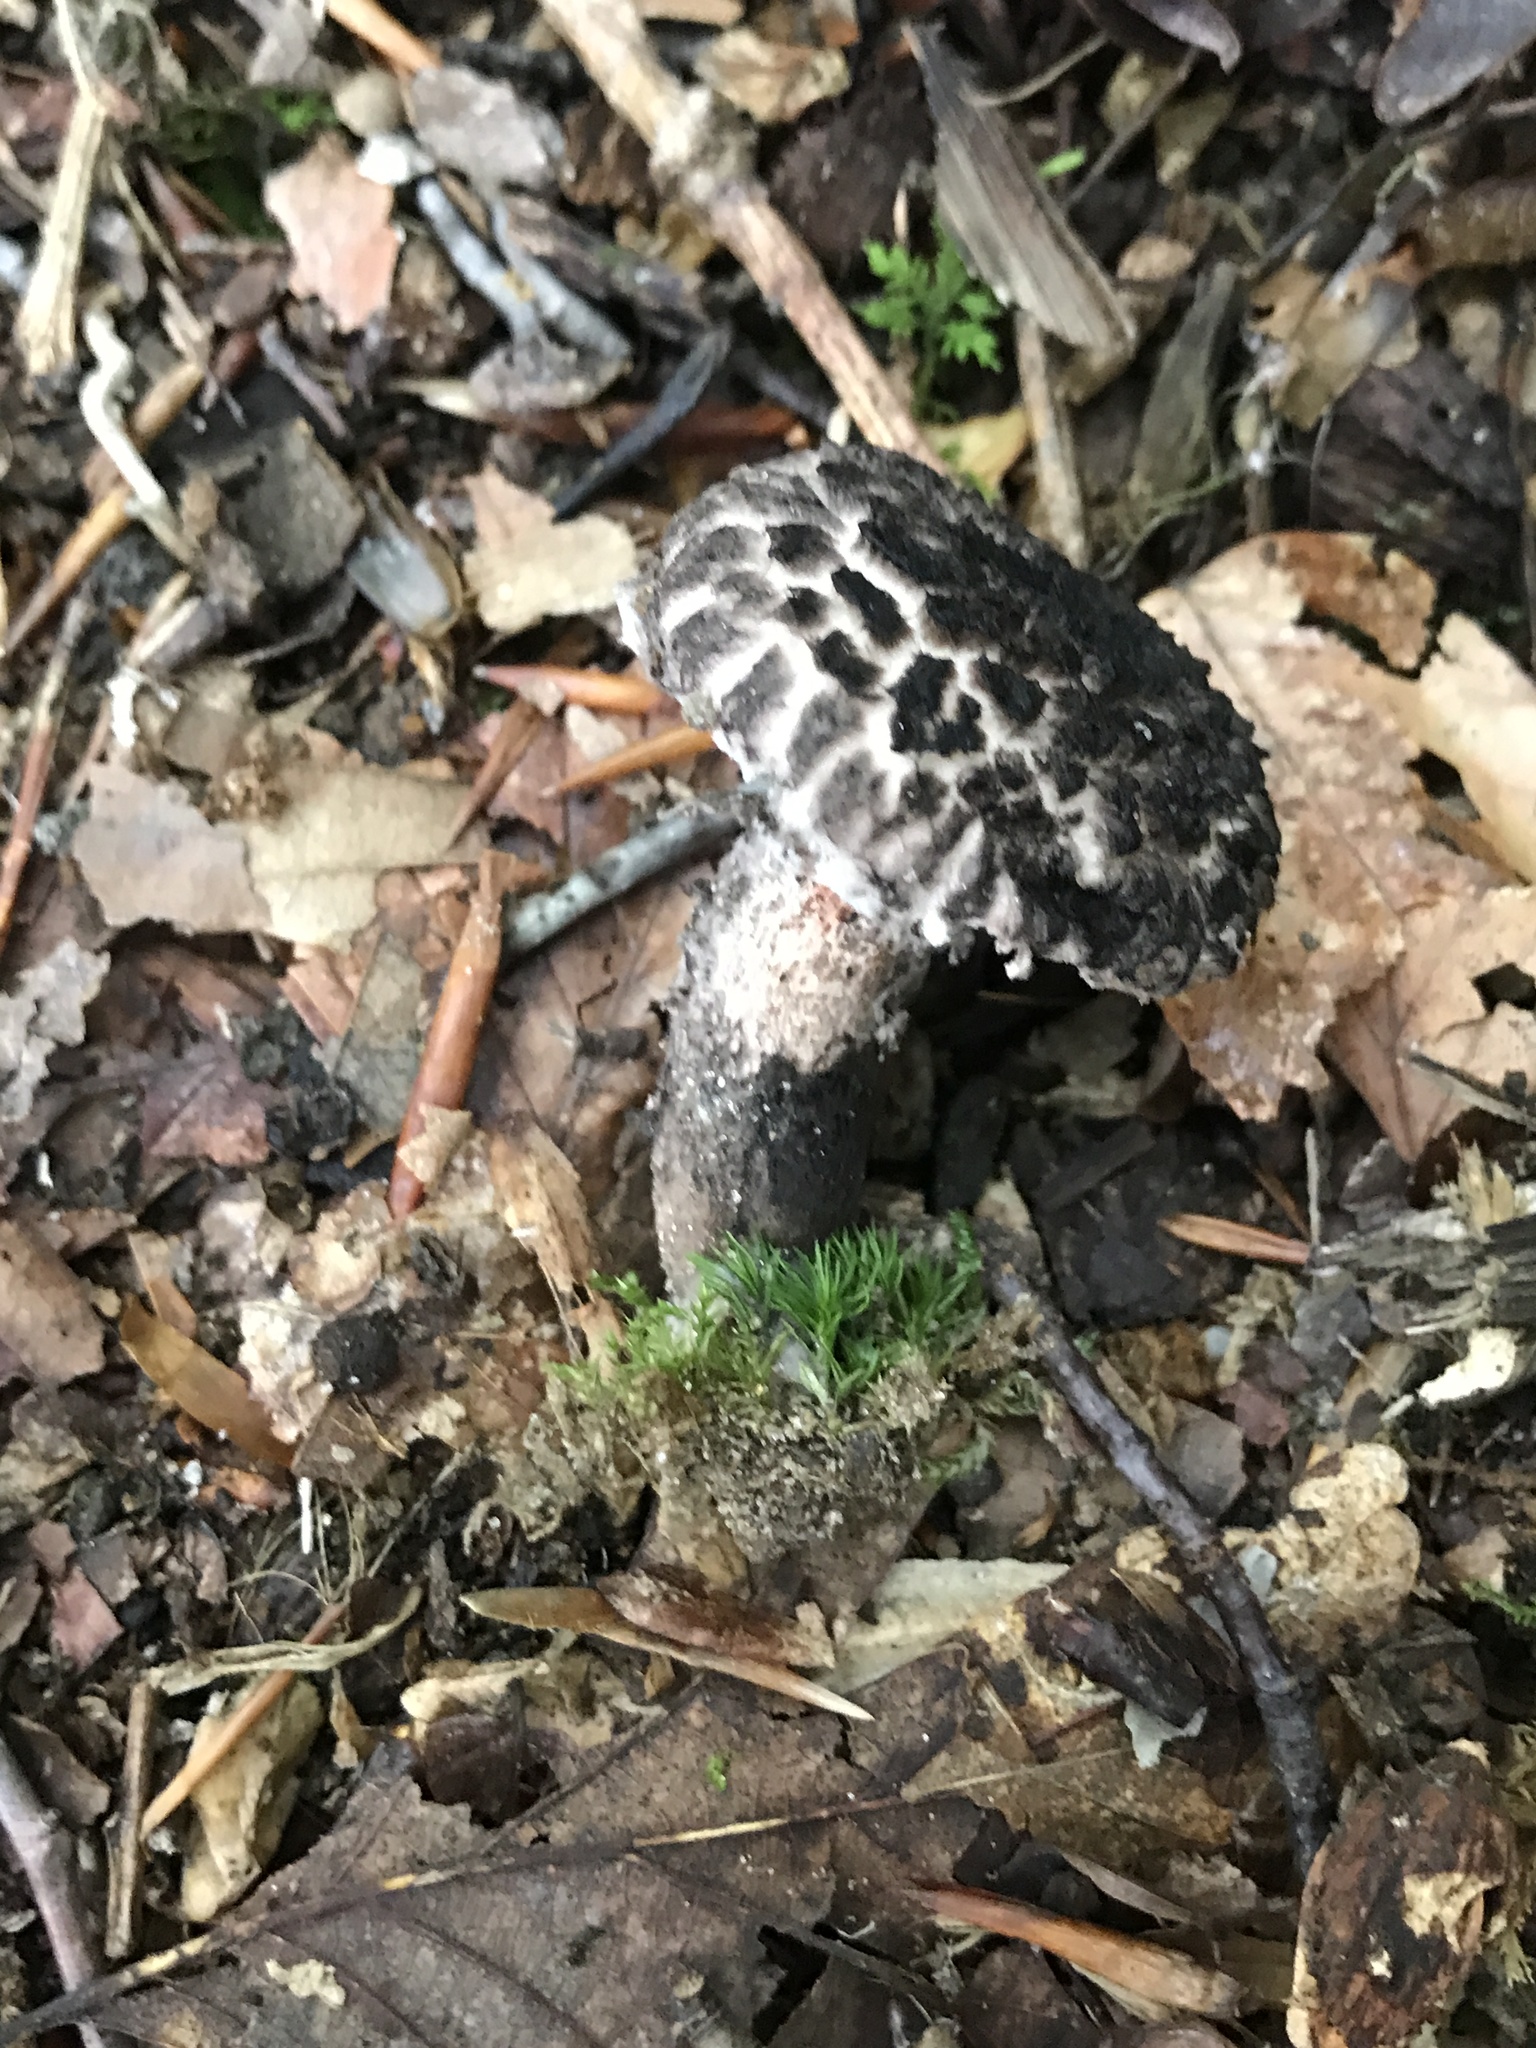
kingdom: Fungi
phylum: Basidiomycota
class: Agaricomycetes
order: Boletales
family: Boletaceae
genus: Strobilomyces
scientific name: Strobilomyces strobilaceus
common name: Old man of the woods
